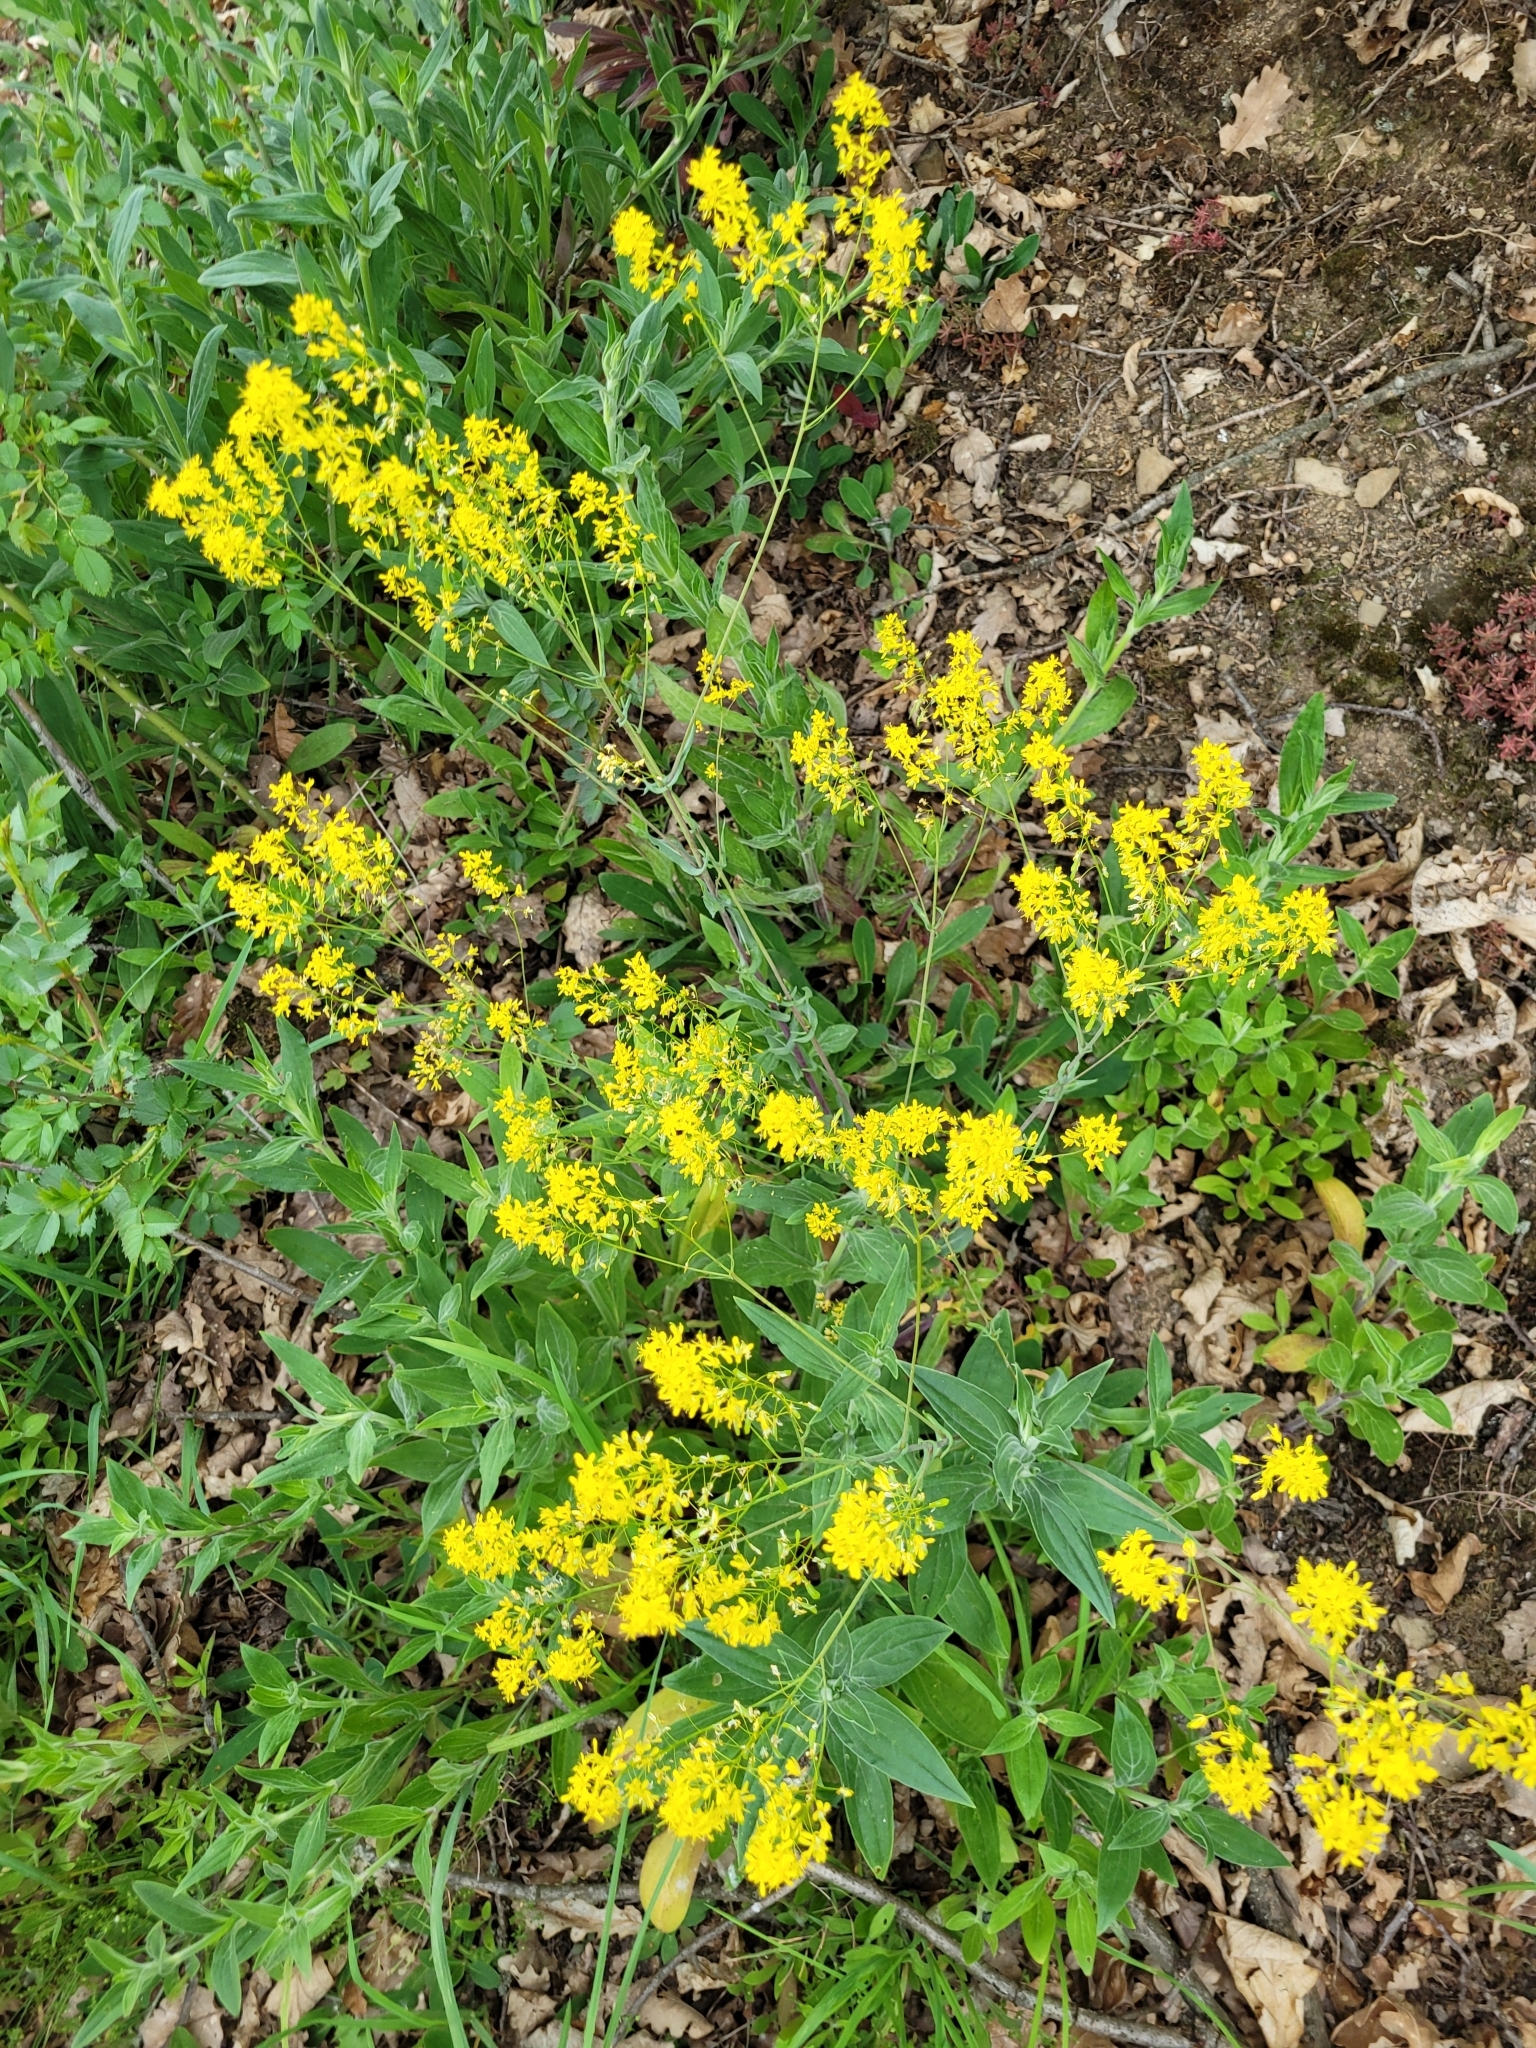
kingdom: Plantae
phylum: Tracheophyta
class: Magnoliopsida
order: Brassicales
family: Brassicaceae
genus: Isatis
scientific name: Isatis tinctoria
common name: Woad
